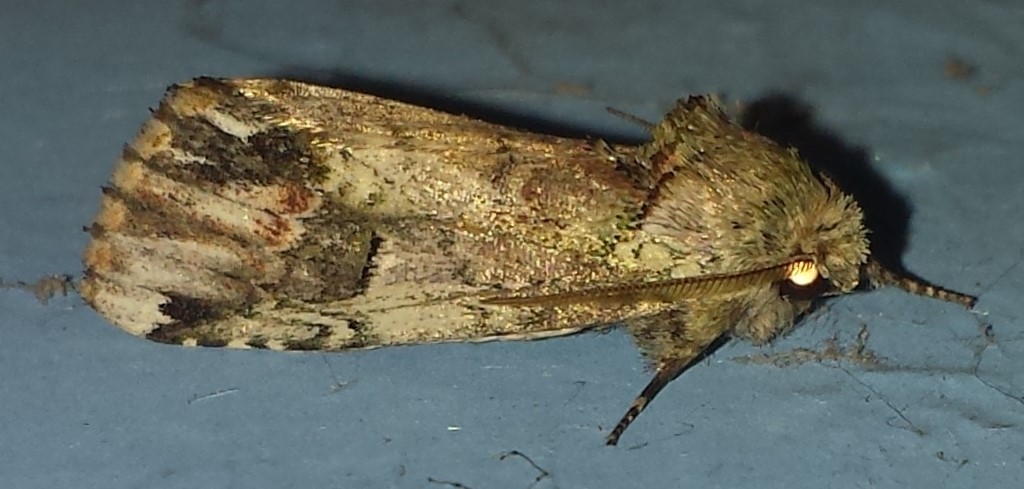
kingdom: Animalia
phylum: Arthropoda
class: Insecta
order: Lepidoptera
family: Notodontidae
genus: Schizura
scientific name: Schizura
